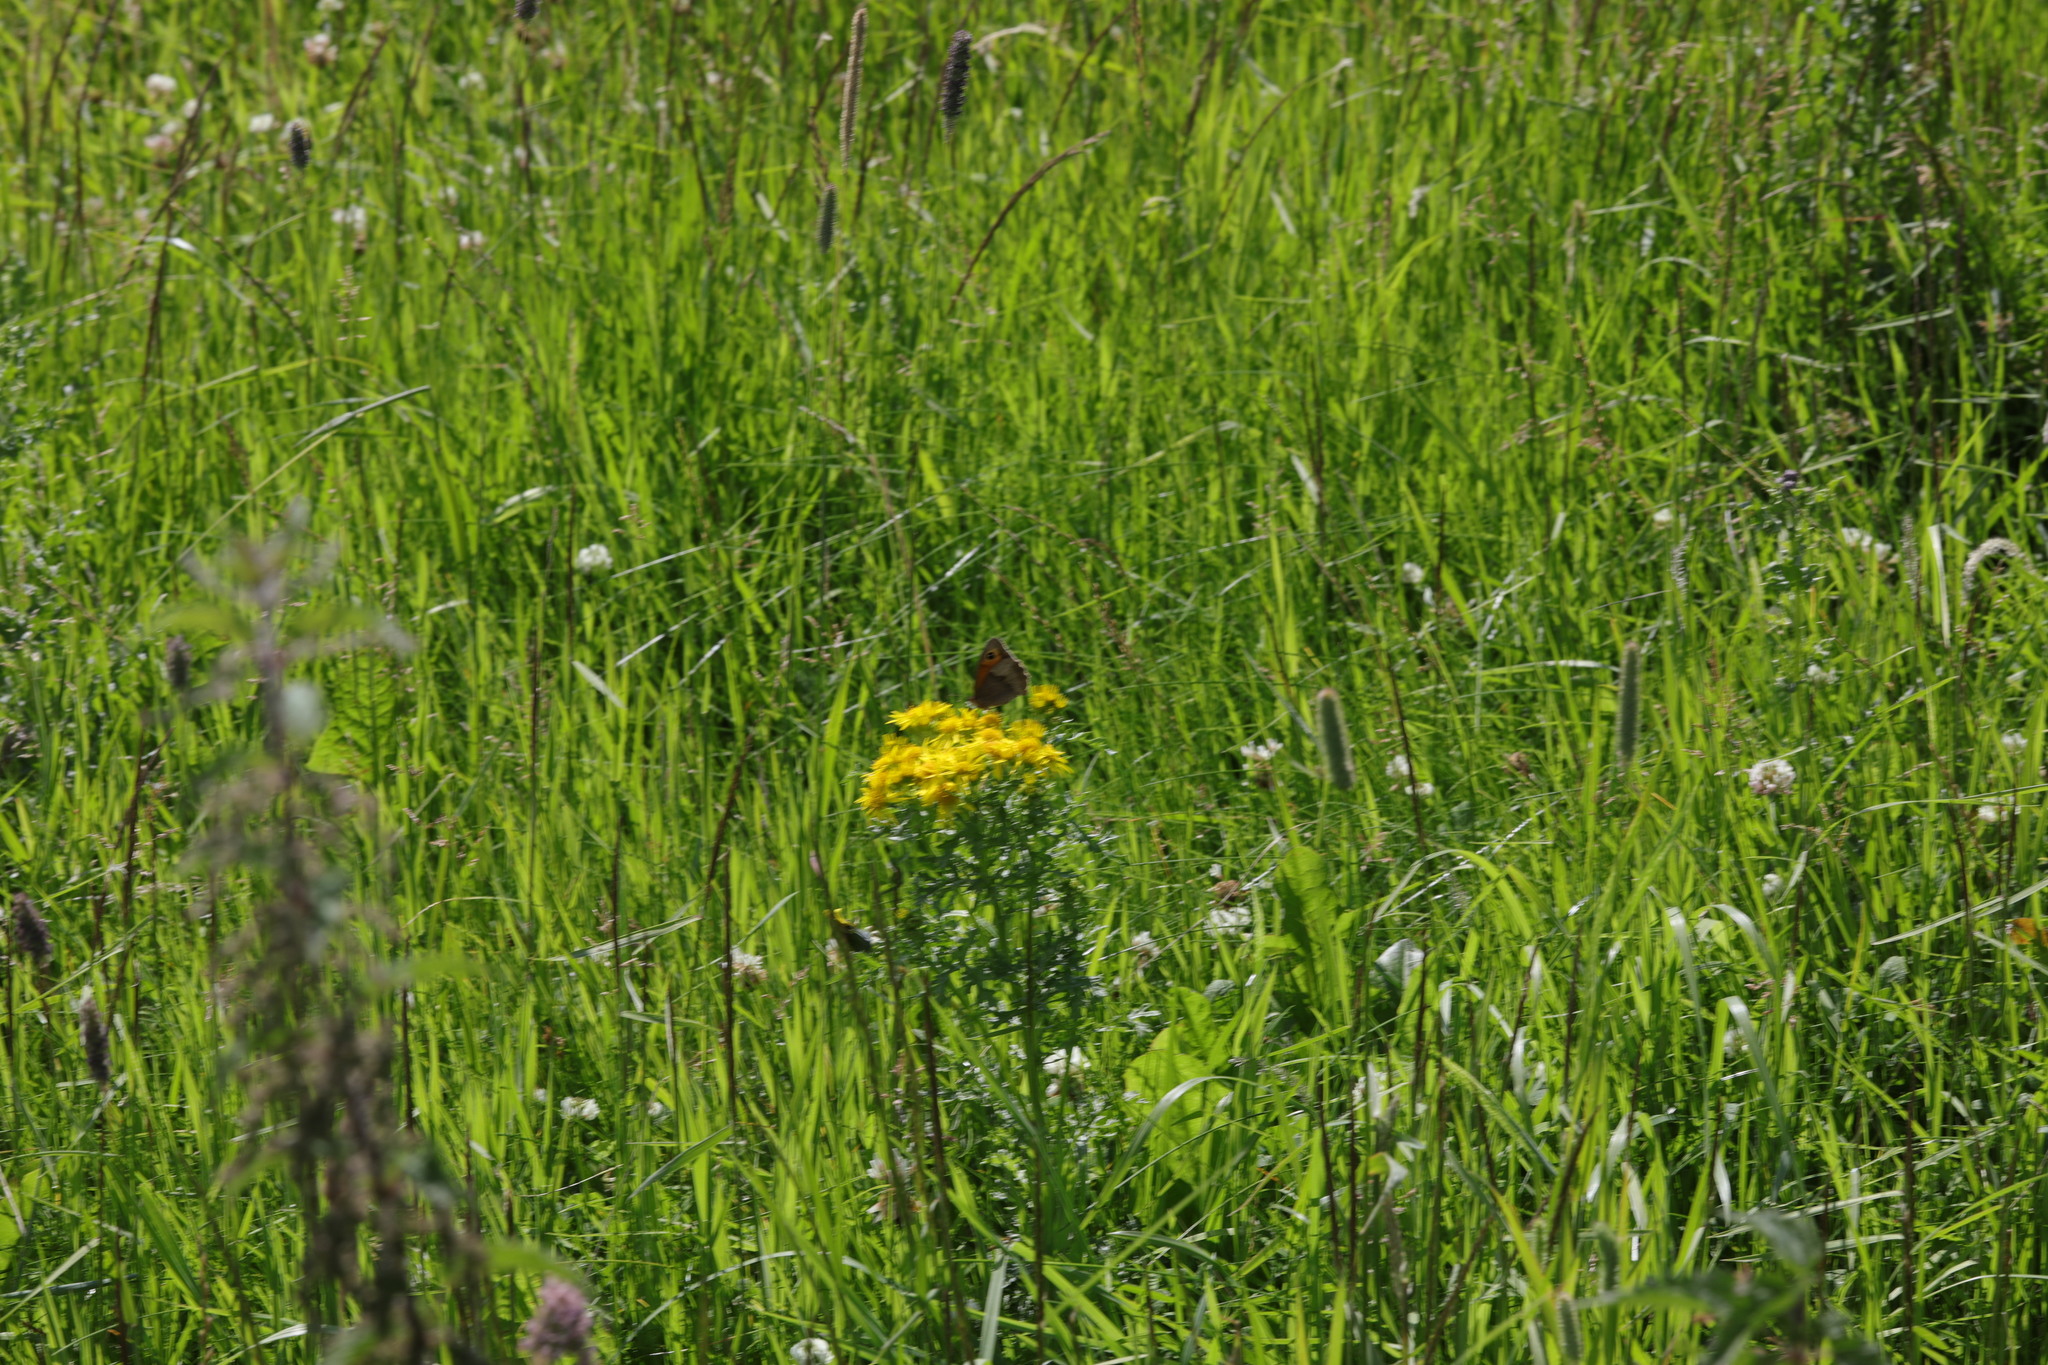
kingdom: Animalia
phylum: Arthropoda
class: Insecta
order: Lepidoptera
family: Nymphalidae
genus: Maniola
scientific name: Maniola jurtina
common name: Meadow brown
